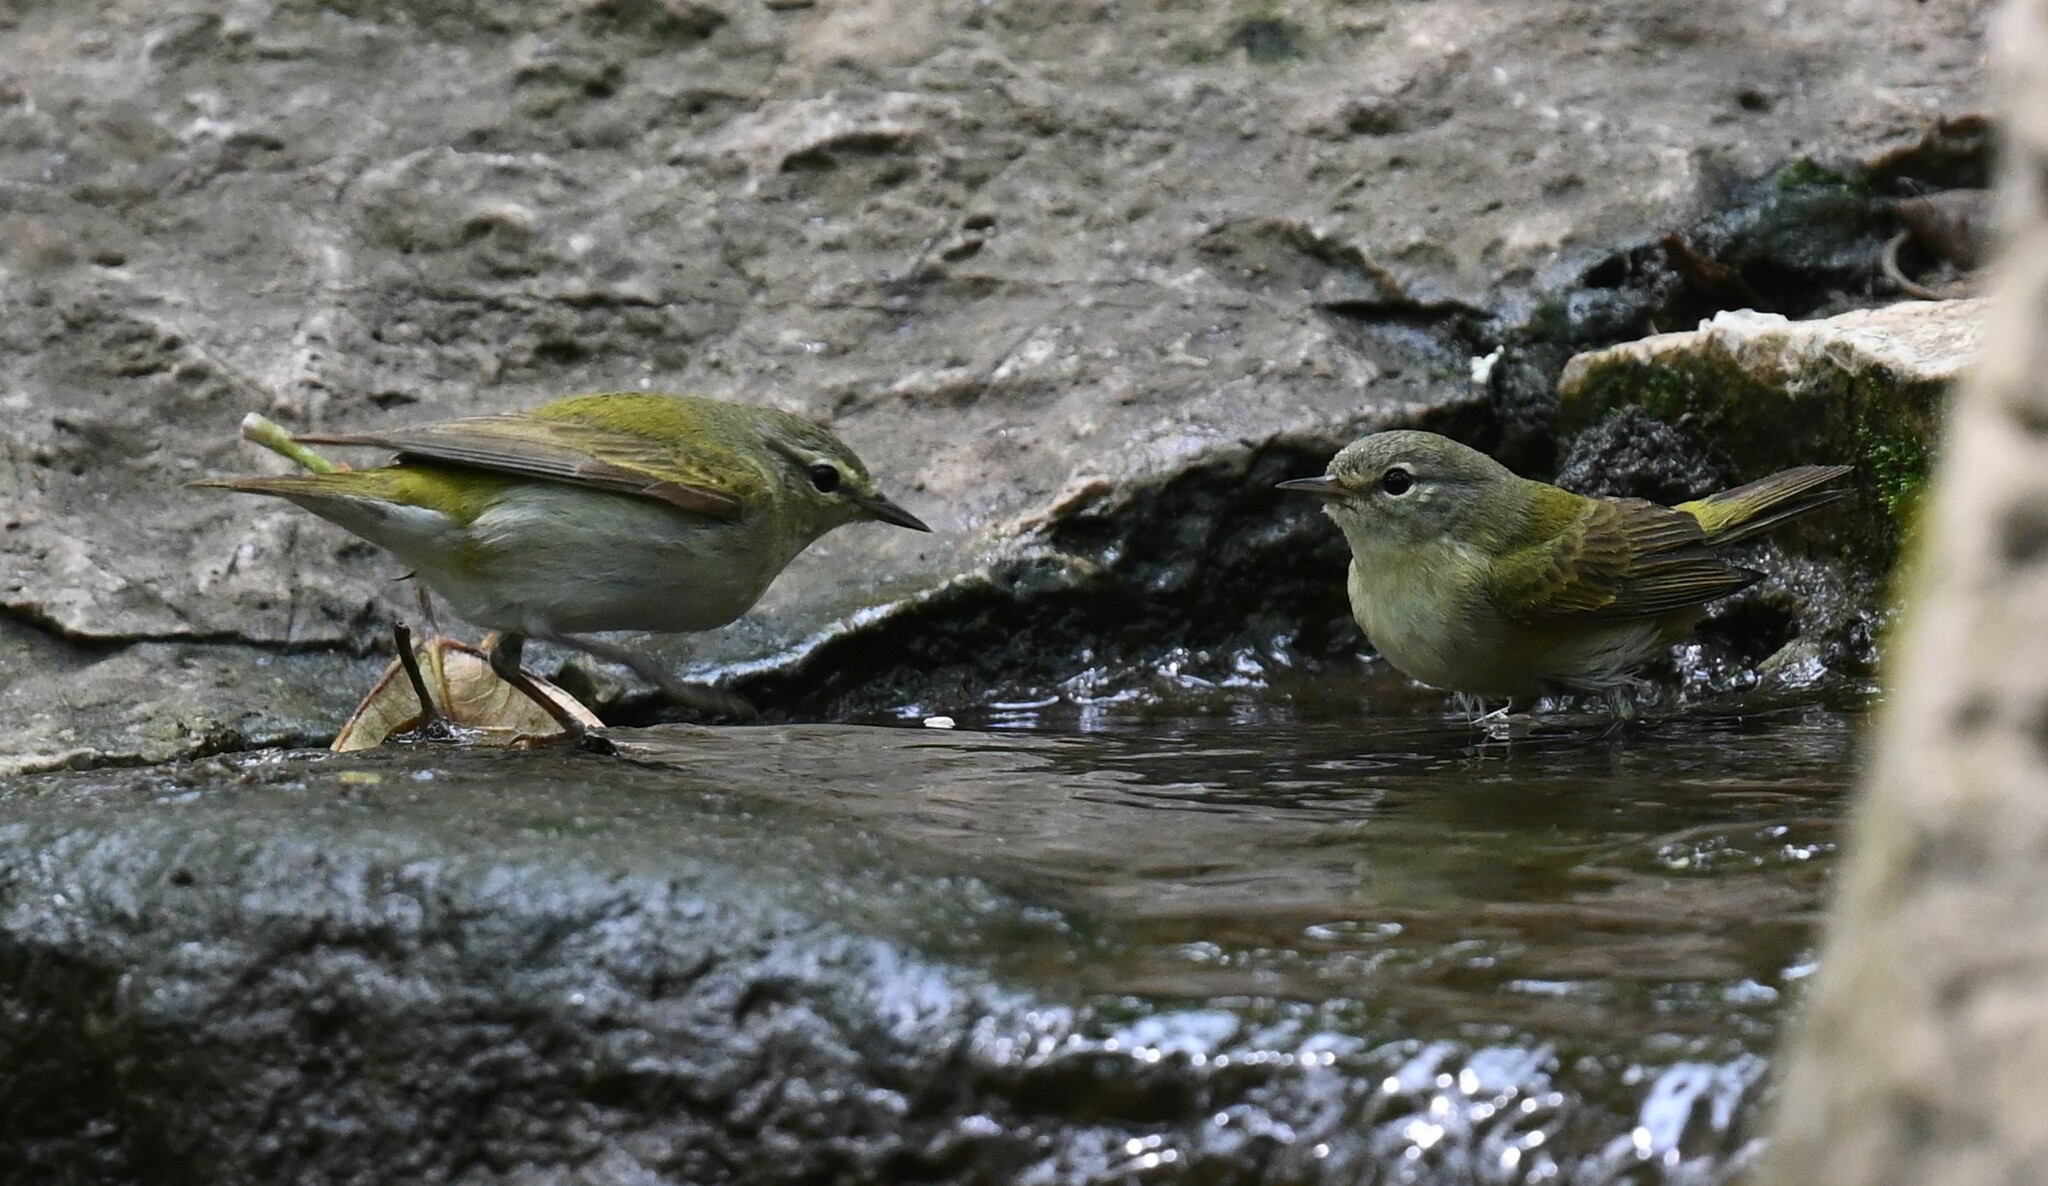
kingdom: Animalia
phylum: Chordata
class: Aves
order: Passeriformes
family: Parulidae
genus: Leiothlypis
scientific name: Leiothlypis peregrina
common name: Tennessee warbler
